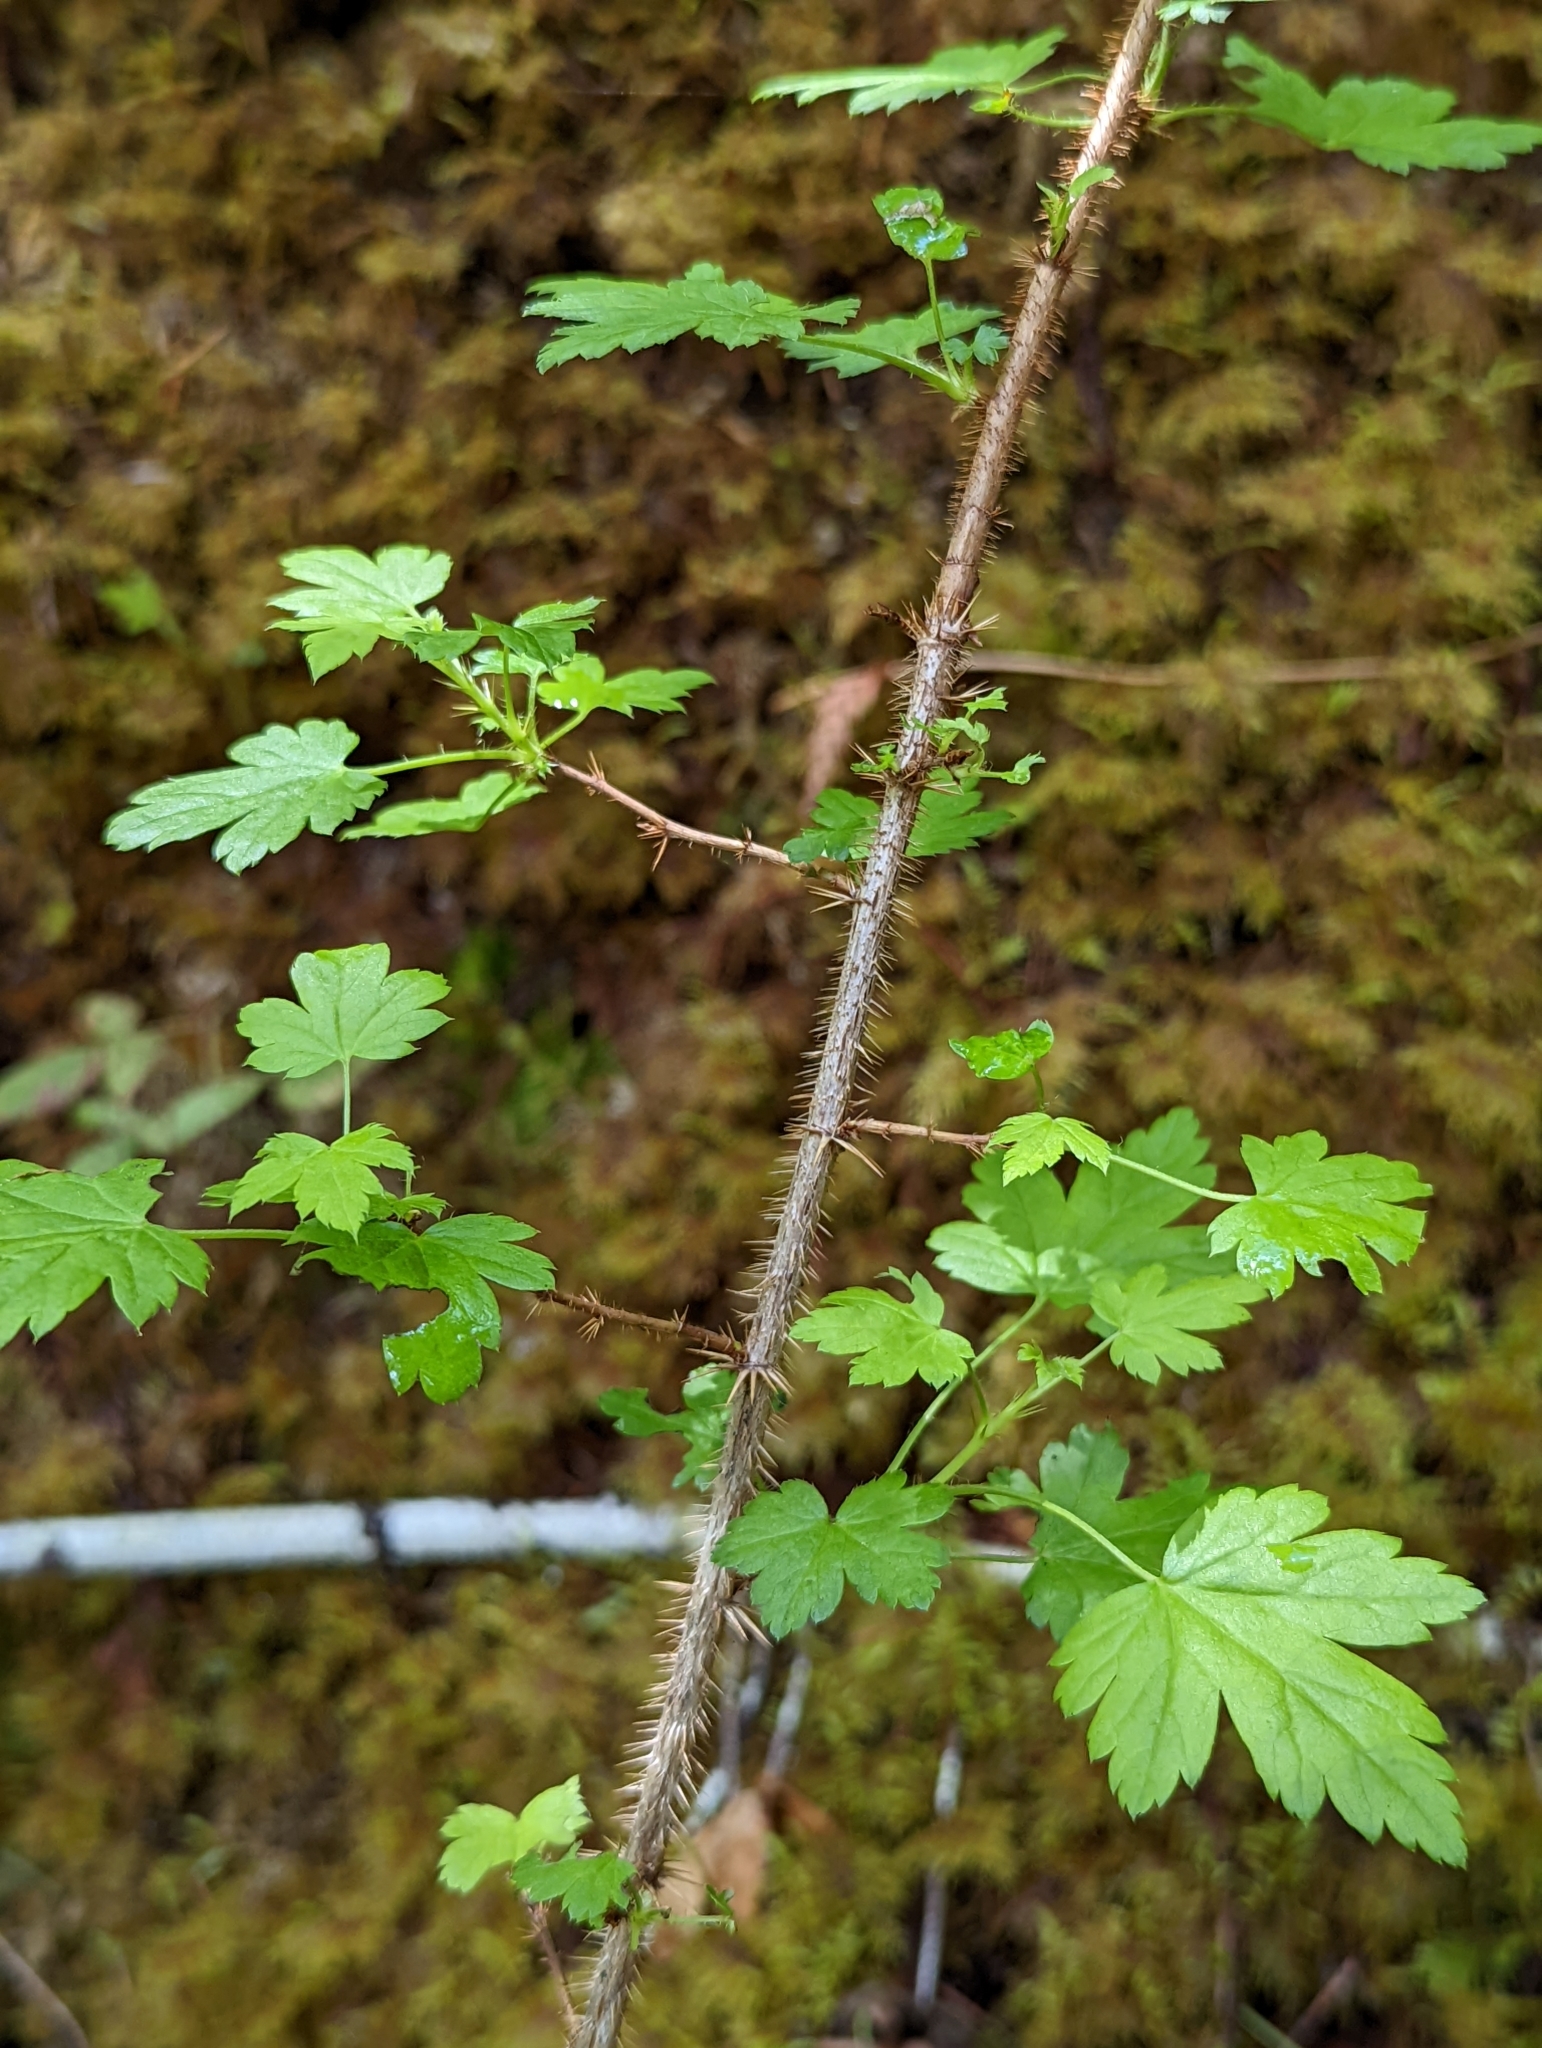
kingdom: Plantae
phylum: Tracheophyta
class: Magnoliopsida
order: Saxifragales
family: Grossulariaceae
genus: Ribes
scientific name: Ribes lacustre
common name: Black gooseberry
